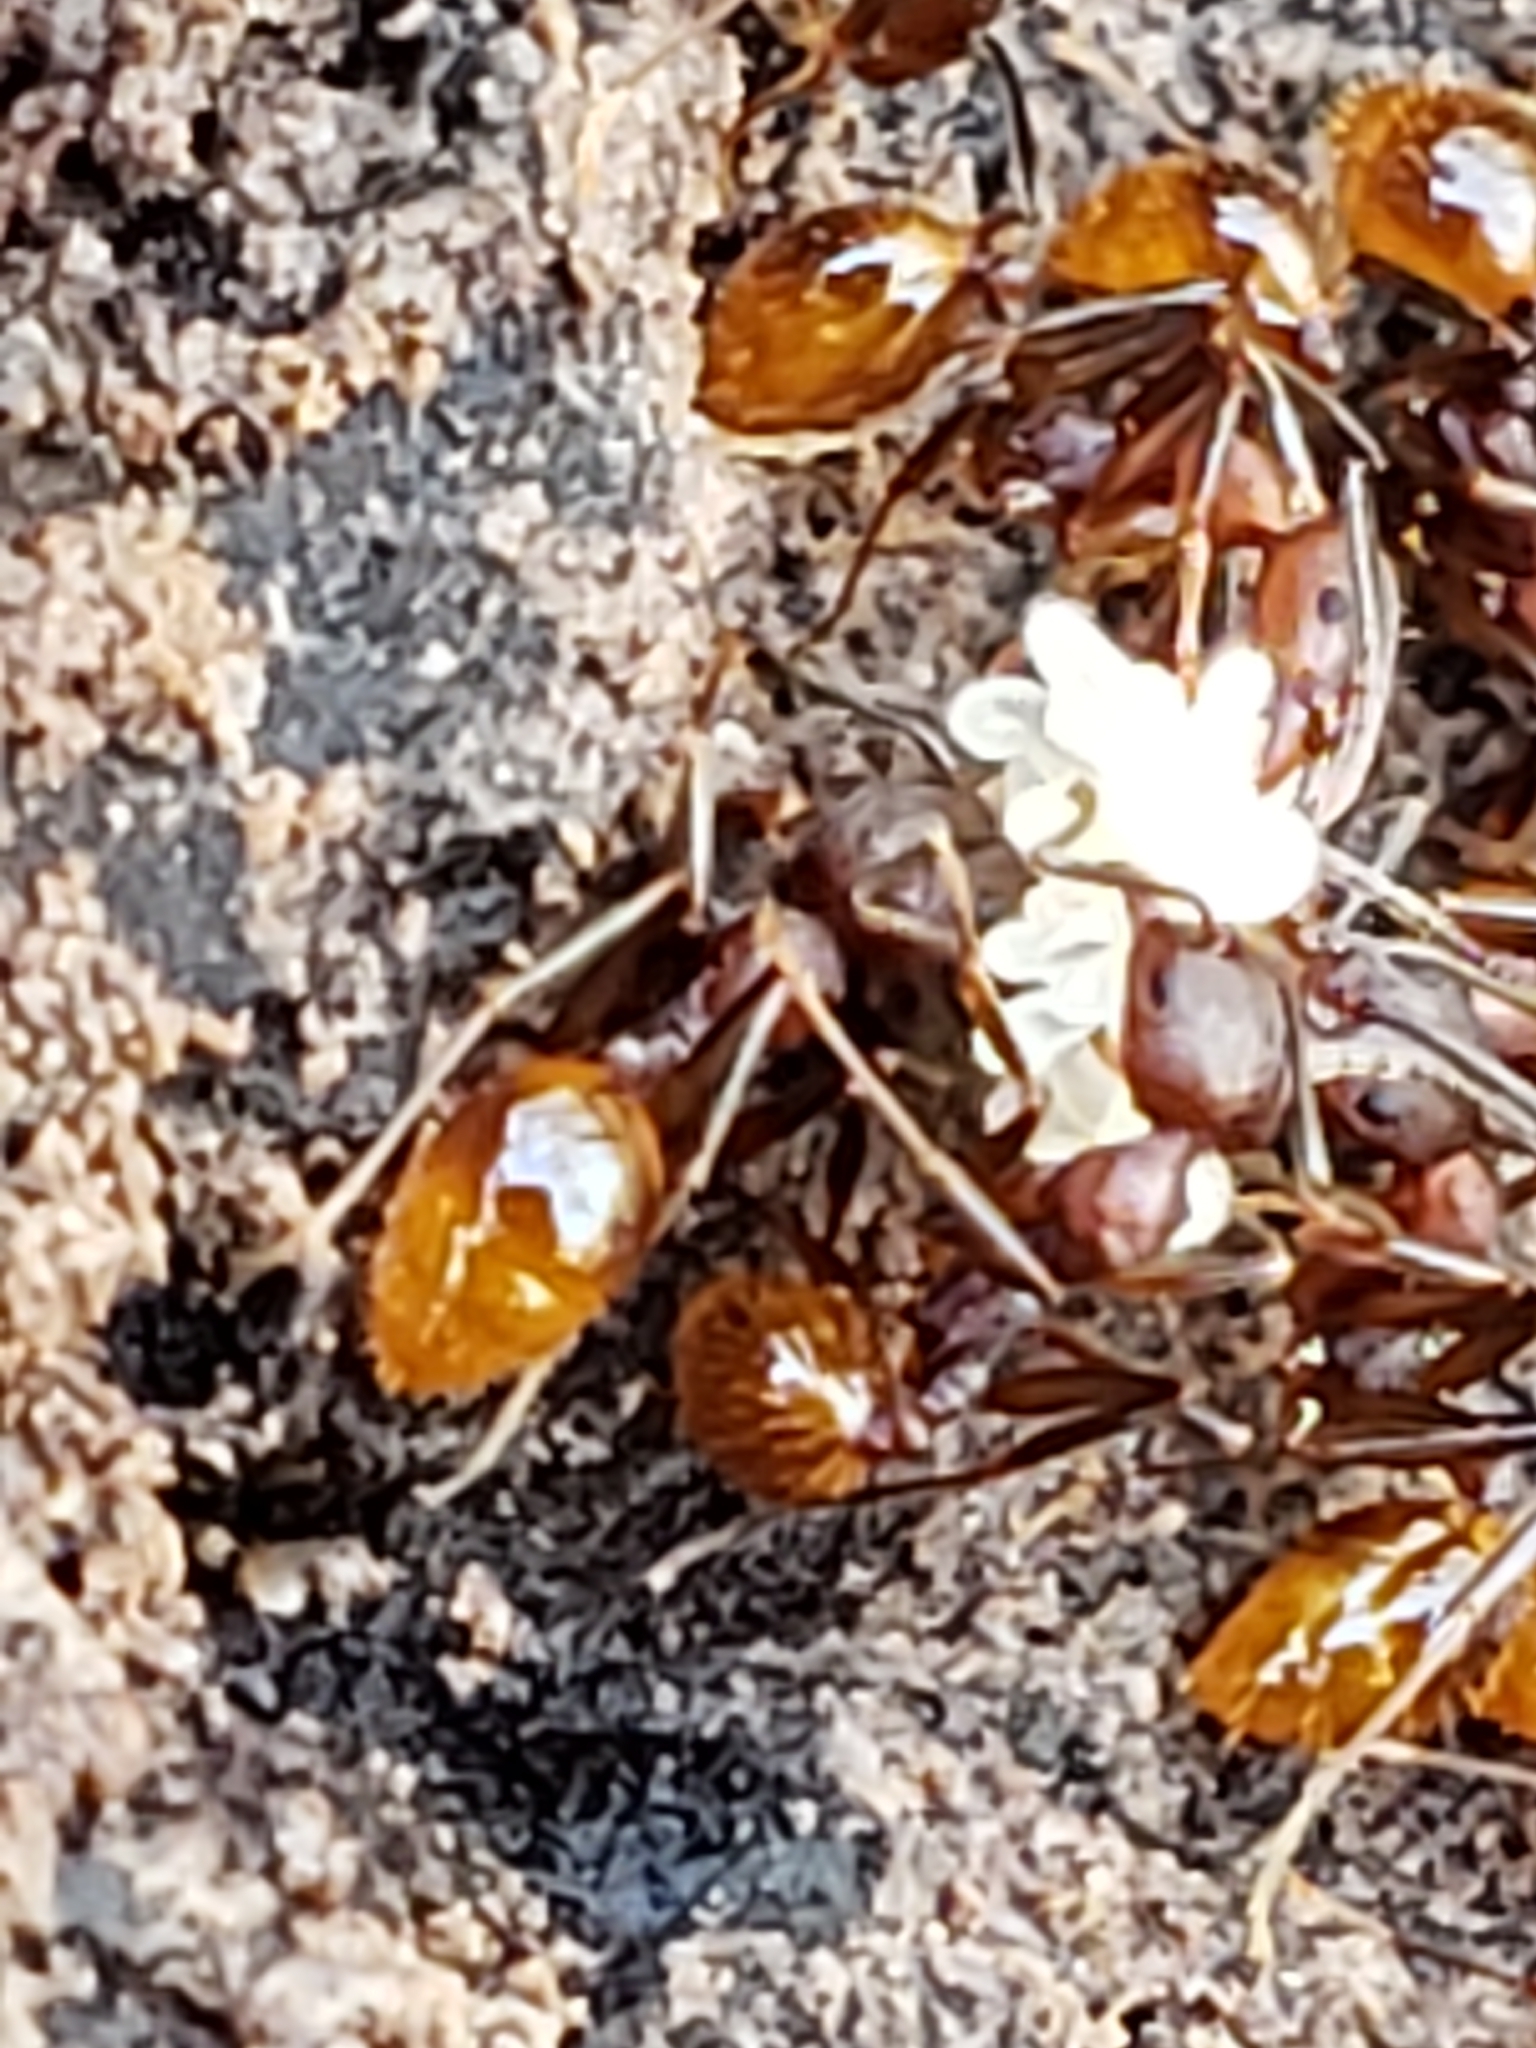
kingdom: Animalia
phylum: Arthropoda
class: Insecta
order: Hymenoptera
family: Formicidae
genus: Aphaenogaster
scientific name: Aphaenogaster fulva
